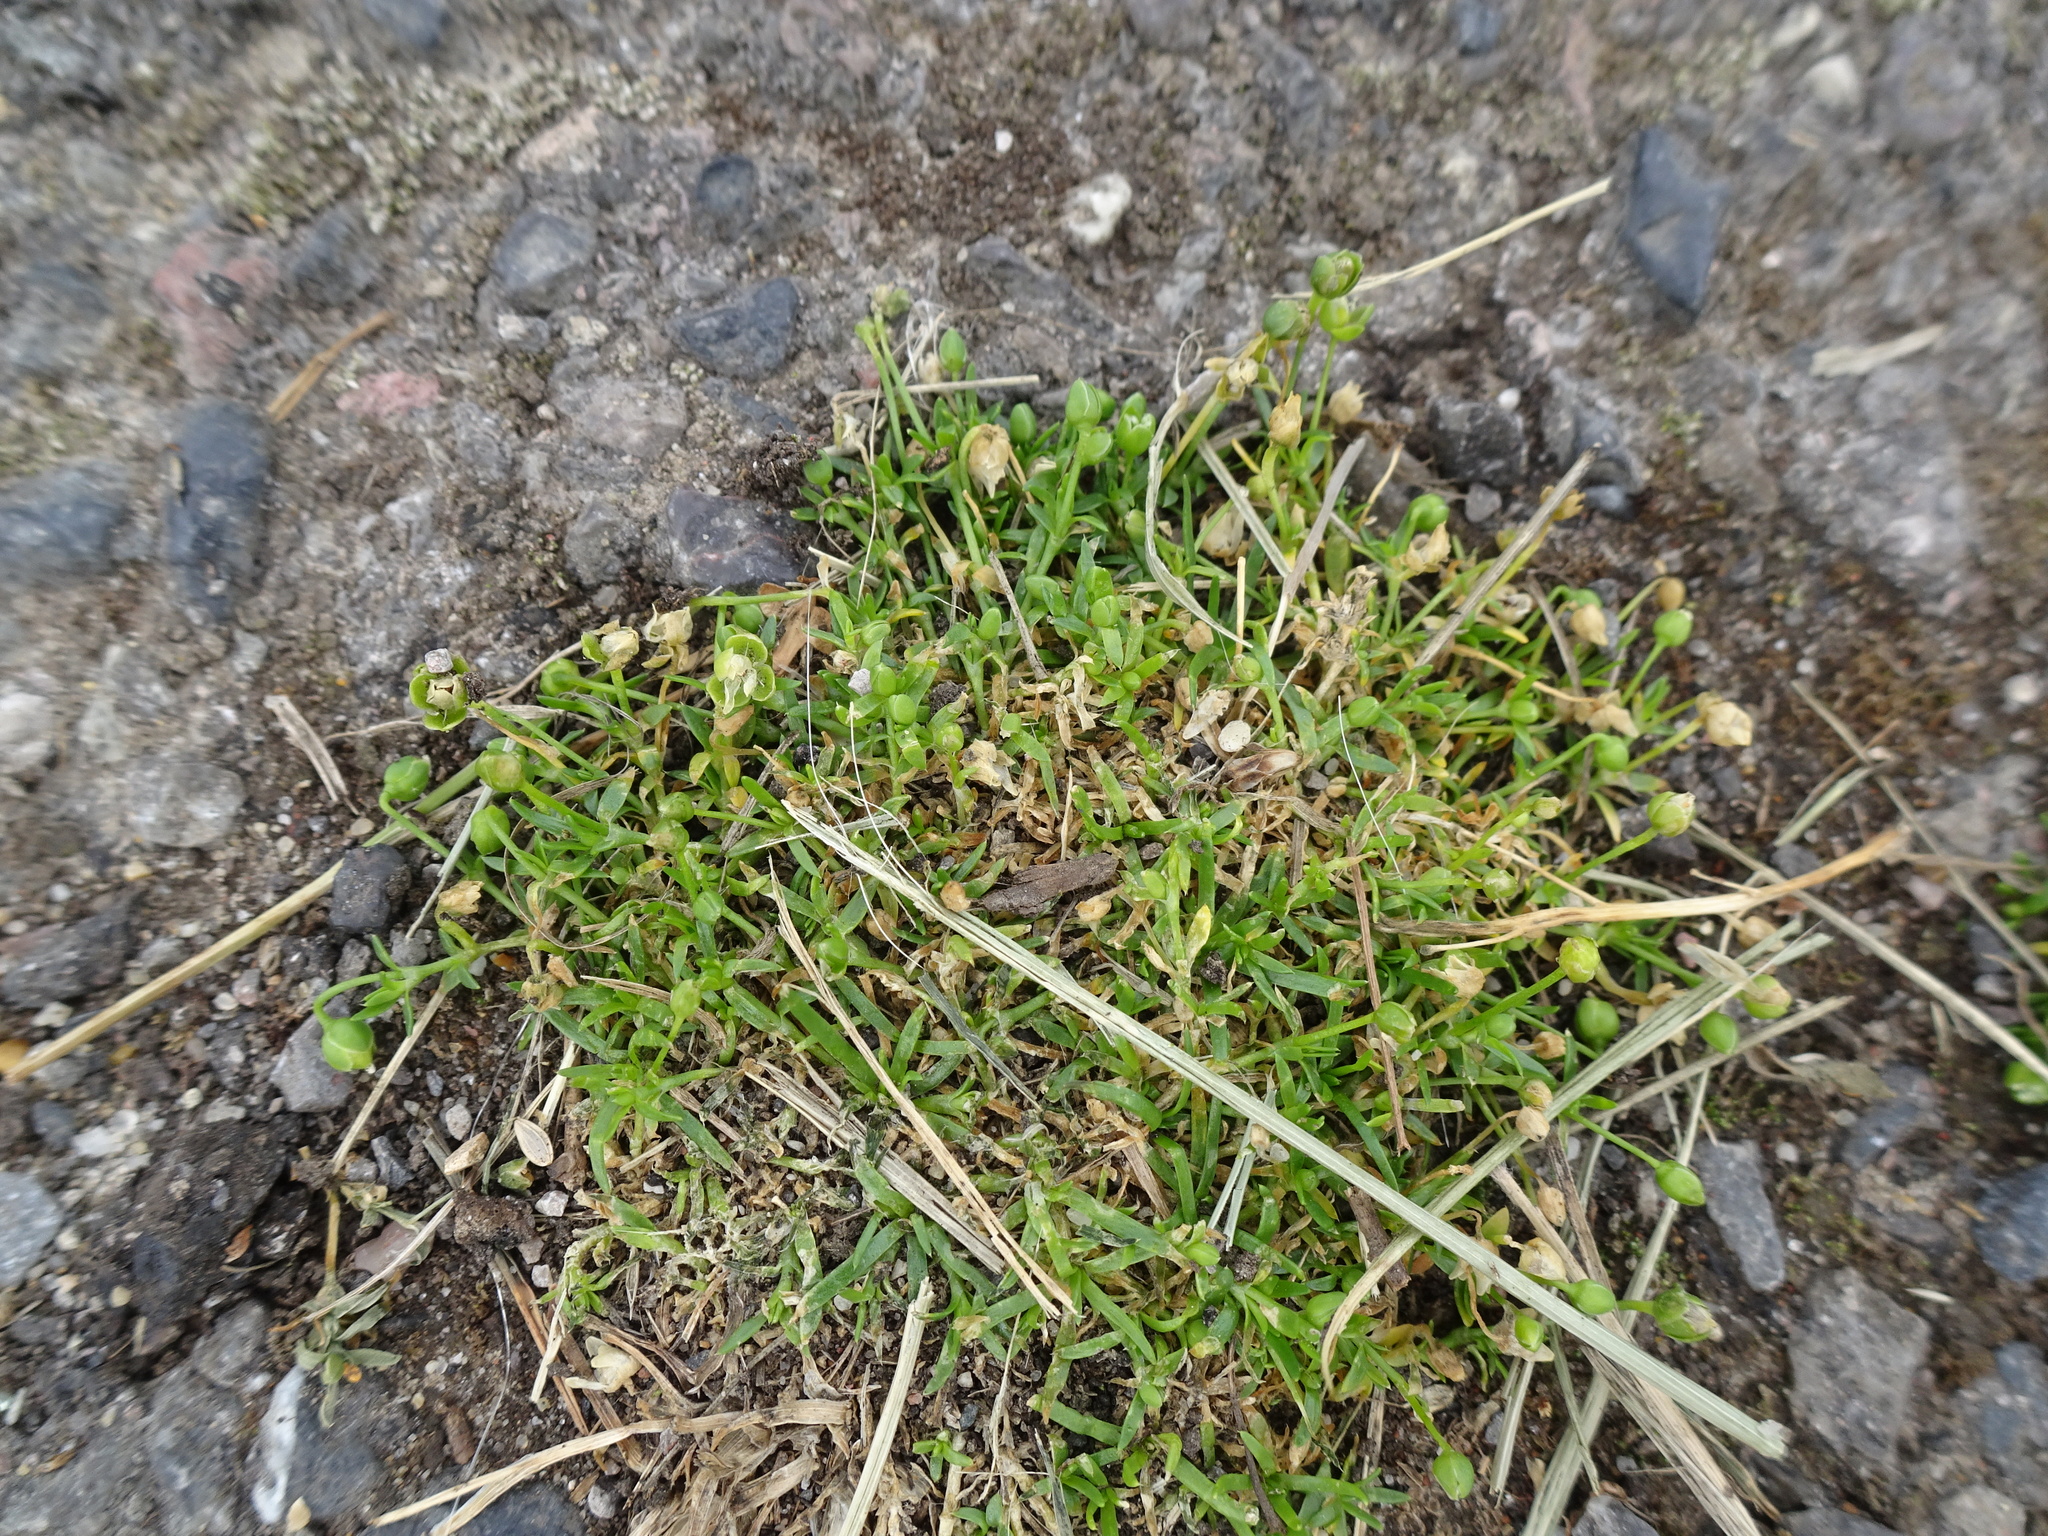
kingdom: Plantae
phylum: Tracheophyta
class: Magnoliopsida
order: Caryophyllales
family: Caryophyllaceae
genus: Sagina
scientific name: Sagina procumbens
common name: Procumbent pearlwort
